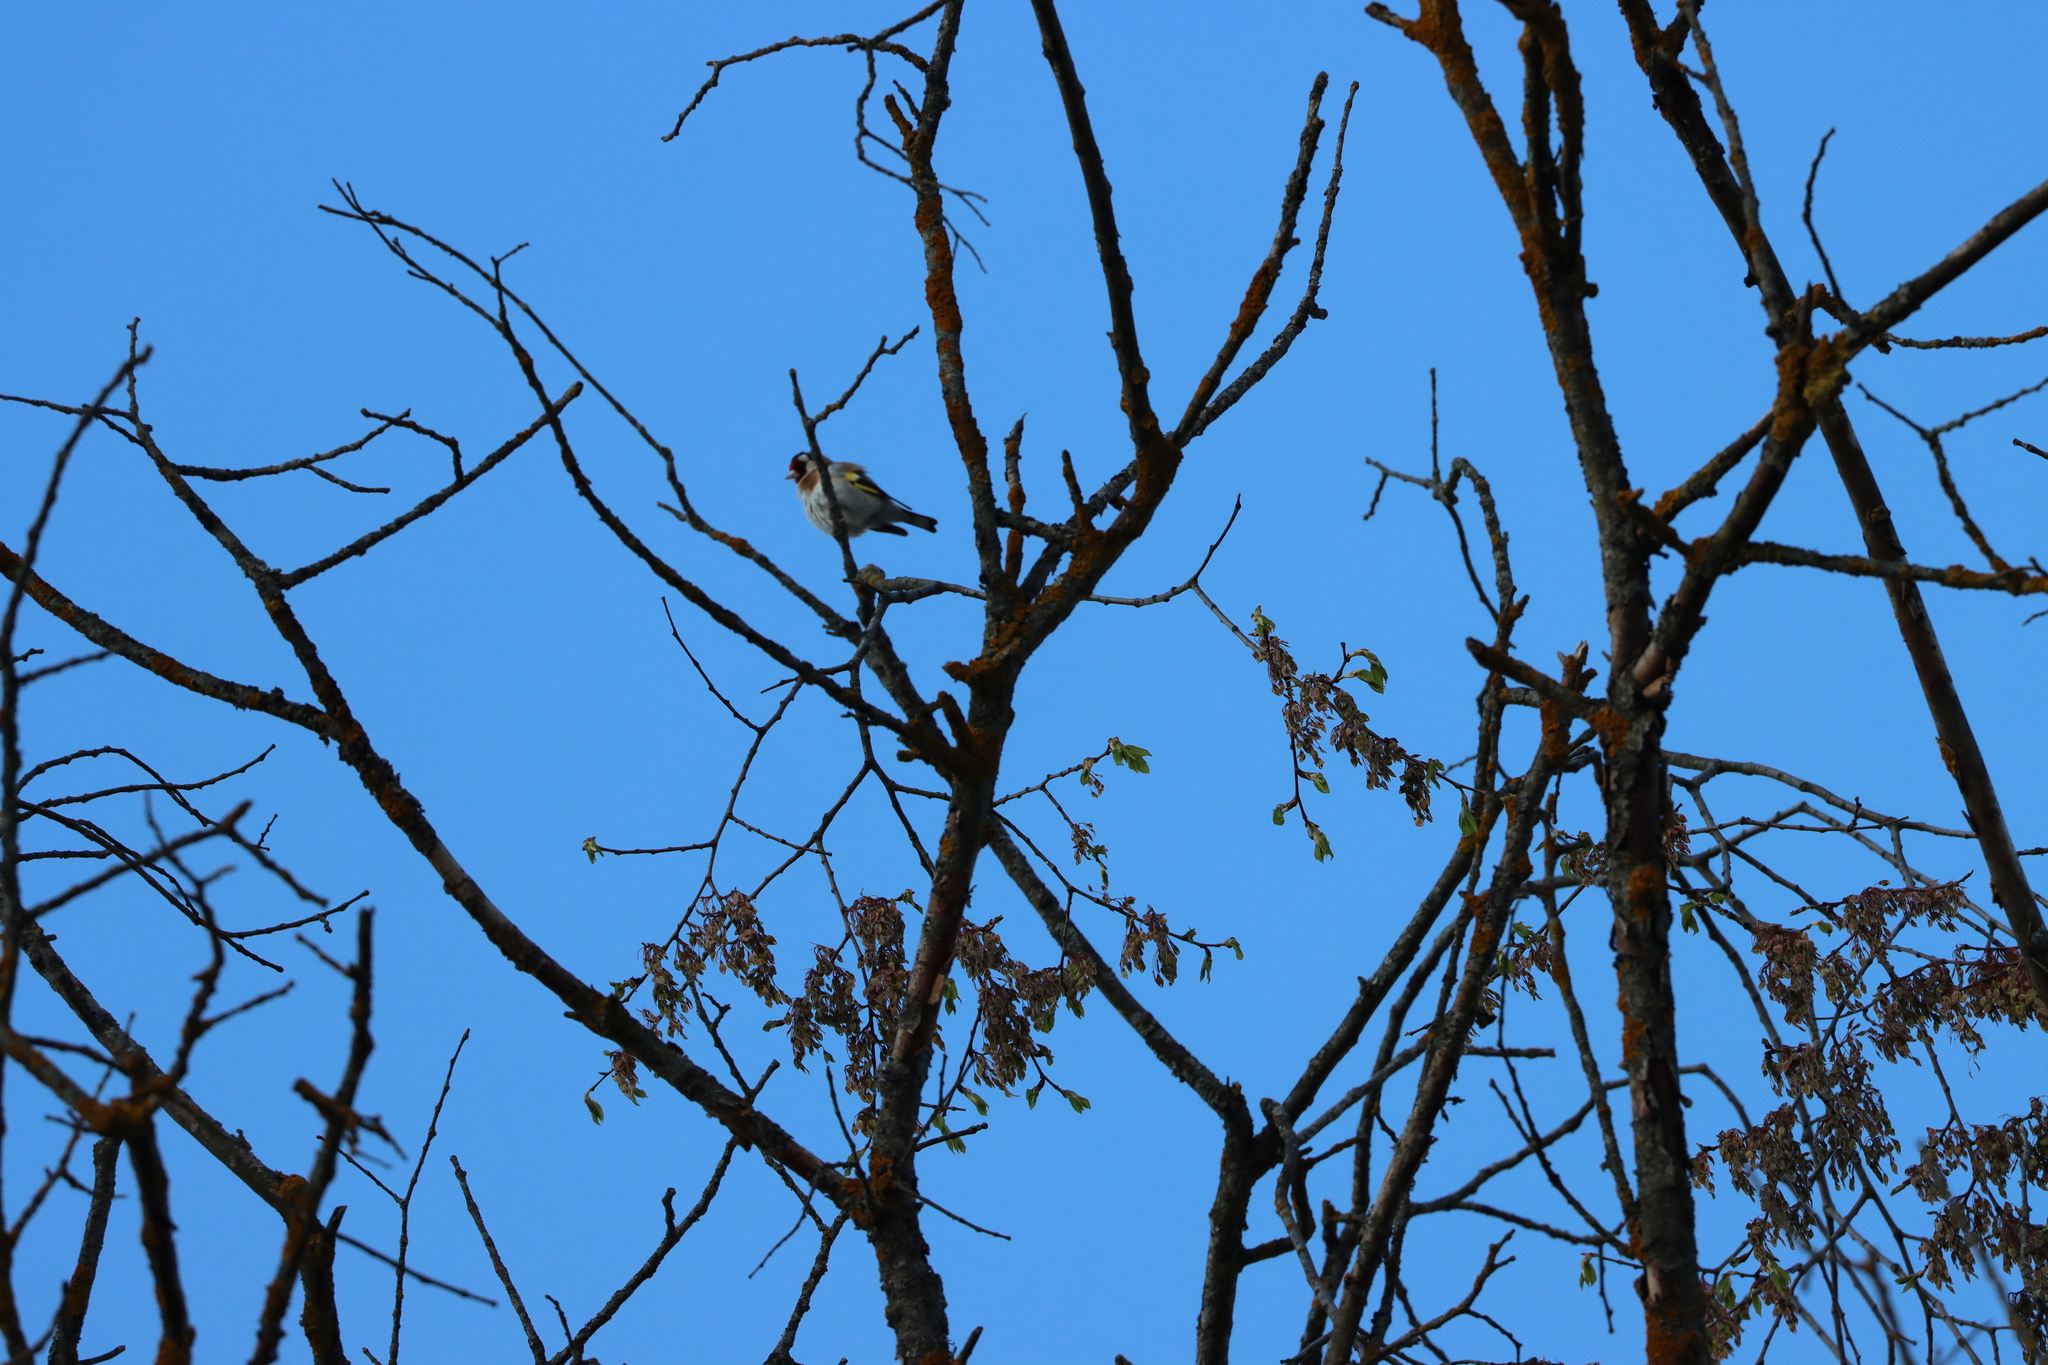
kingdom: Animalia
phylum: Chordata
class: Aves
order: Passeriformes
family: Fringillidae
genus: Carduelis
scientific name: Carduelis carduelis
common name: European goldfinch
